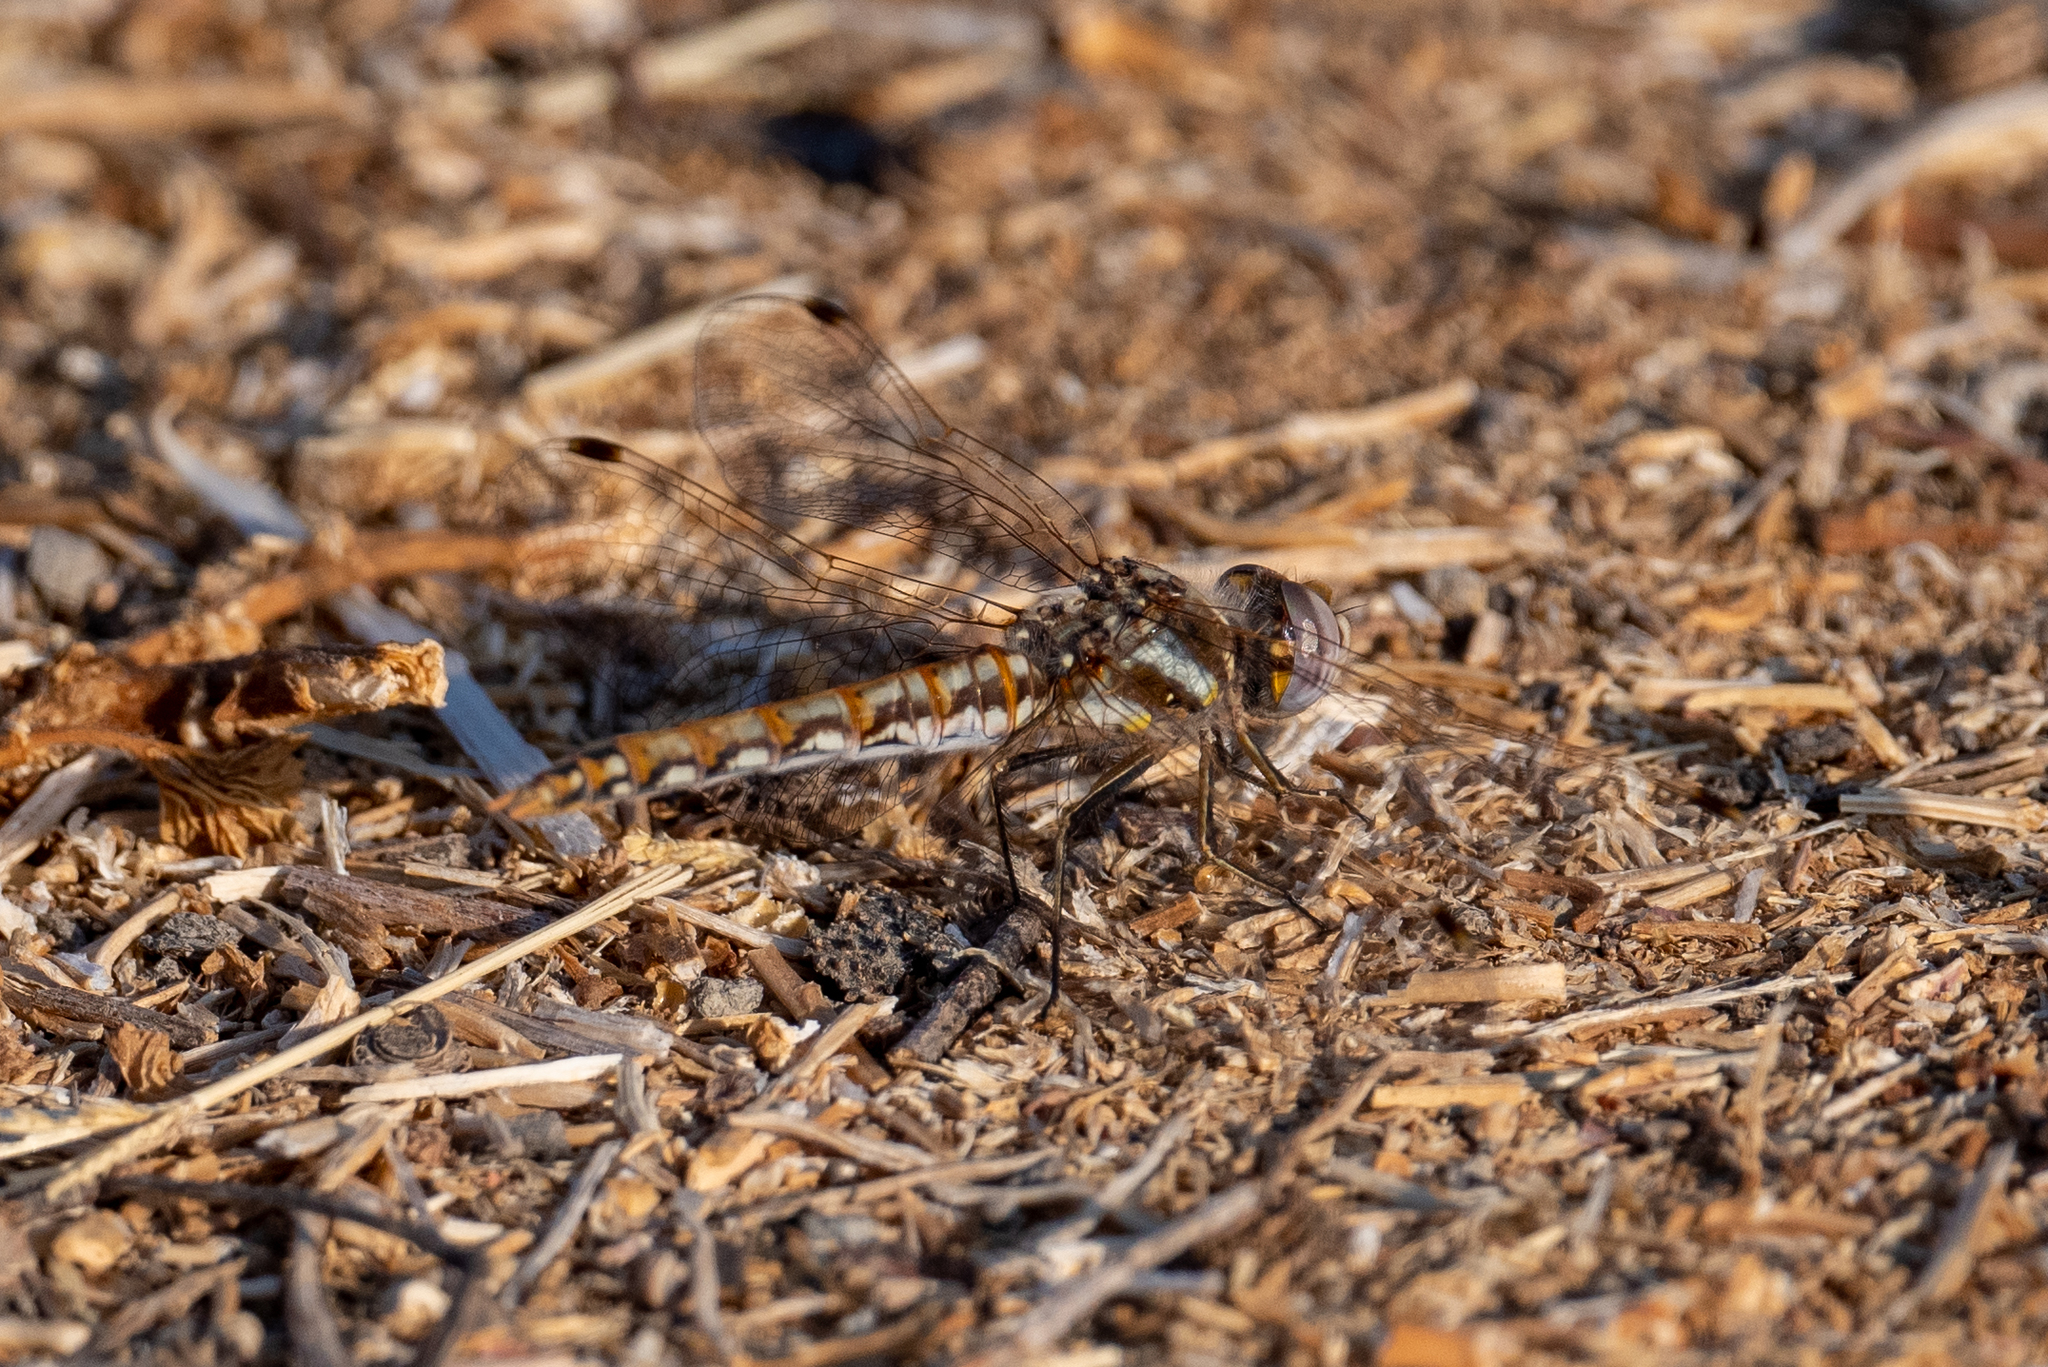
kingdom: Animalia
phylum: Arthropoda
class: Insecta
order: Odonata
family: Libellulidae
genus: Sympetrum
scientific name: Sympetrum corruptum
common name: Variegated meadowhawk
